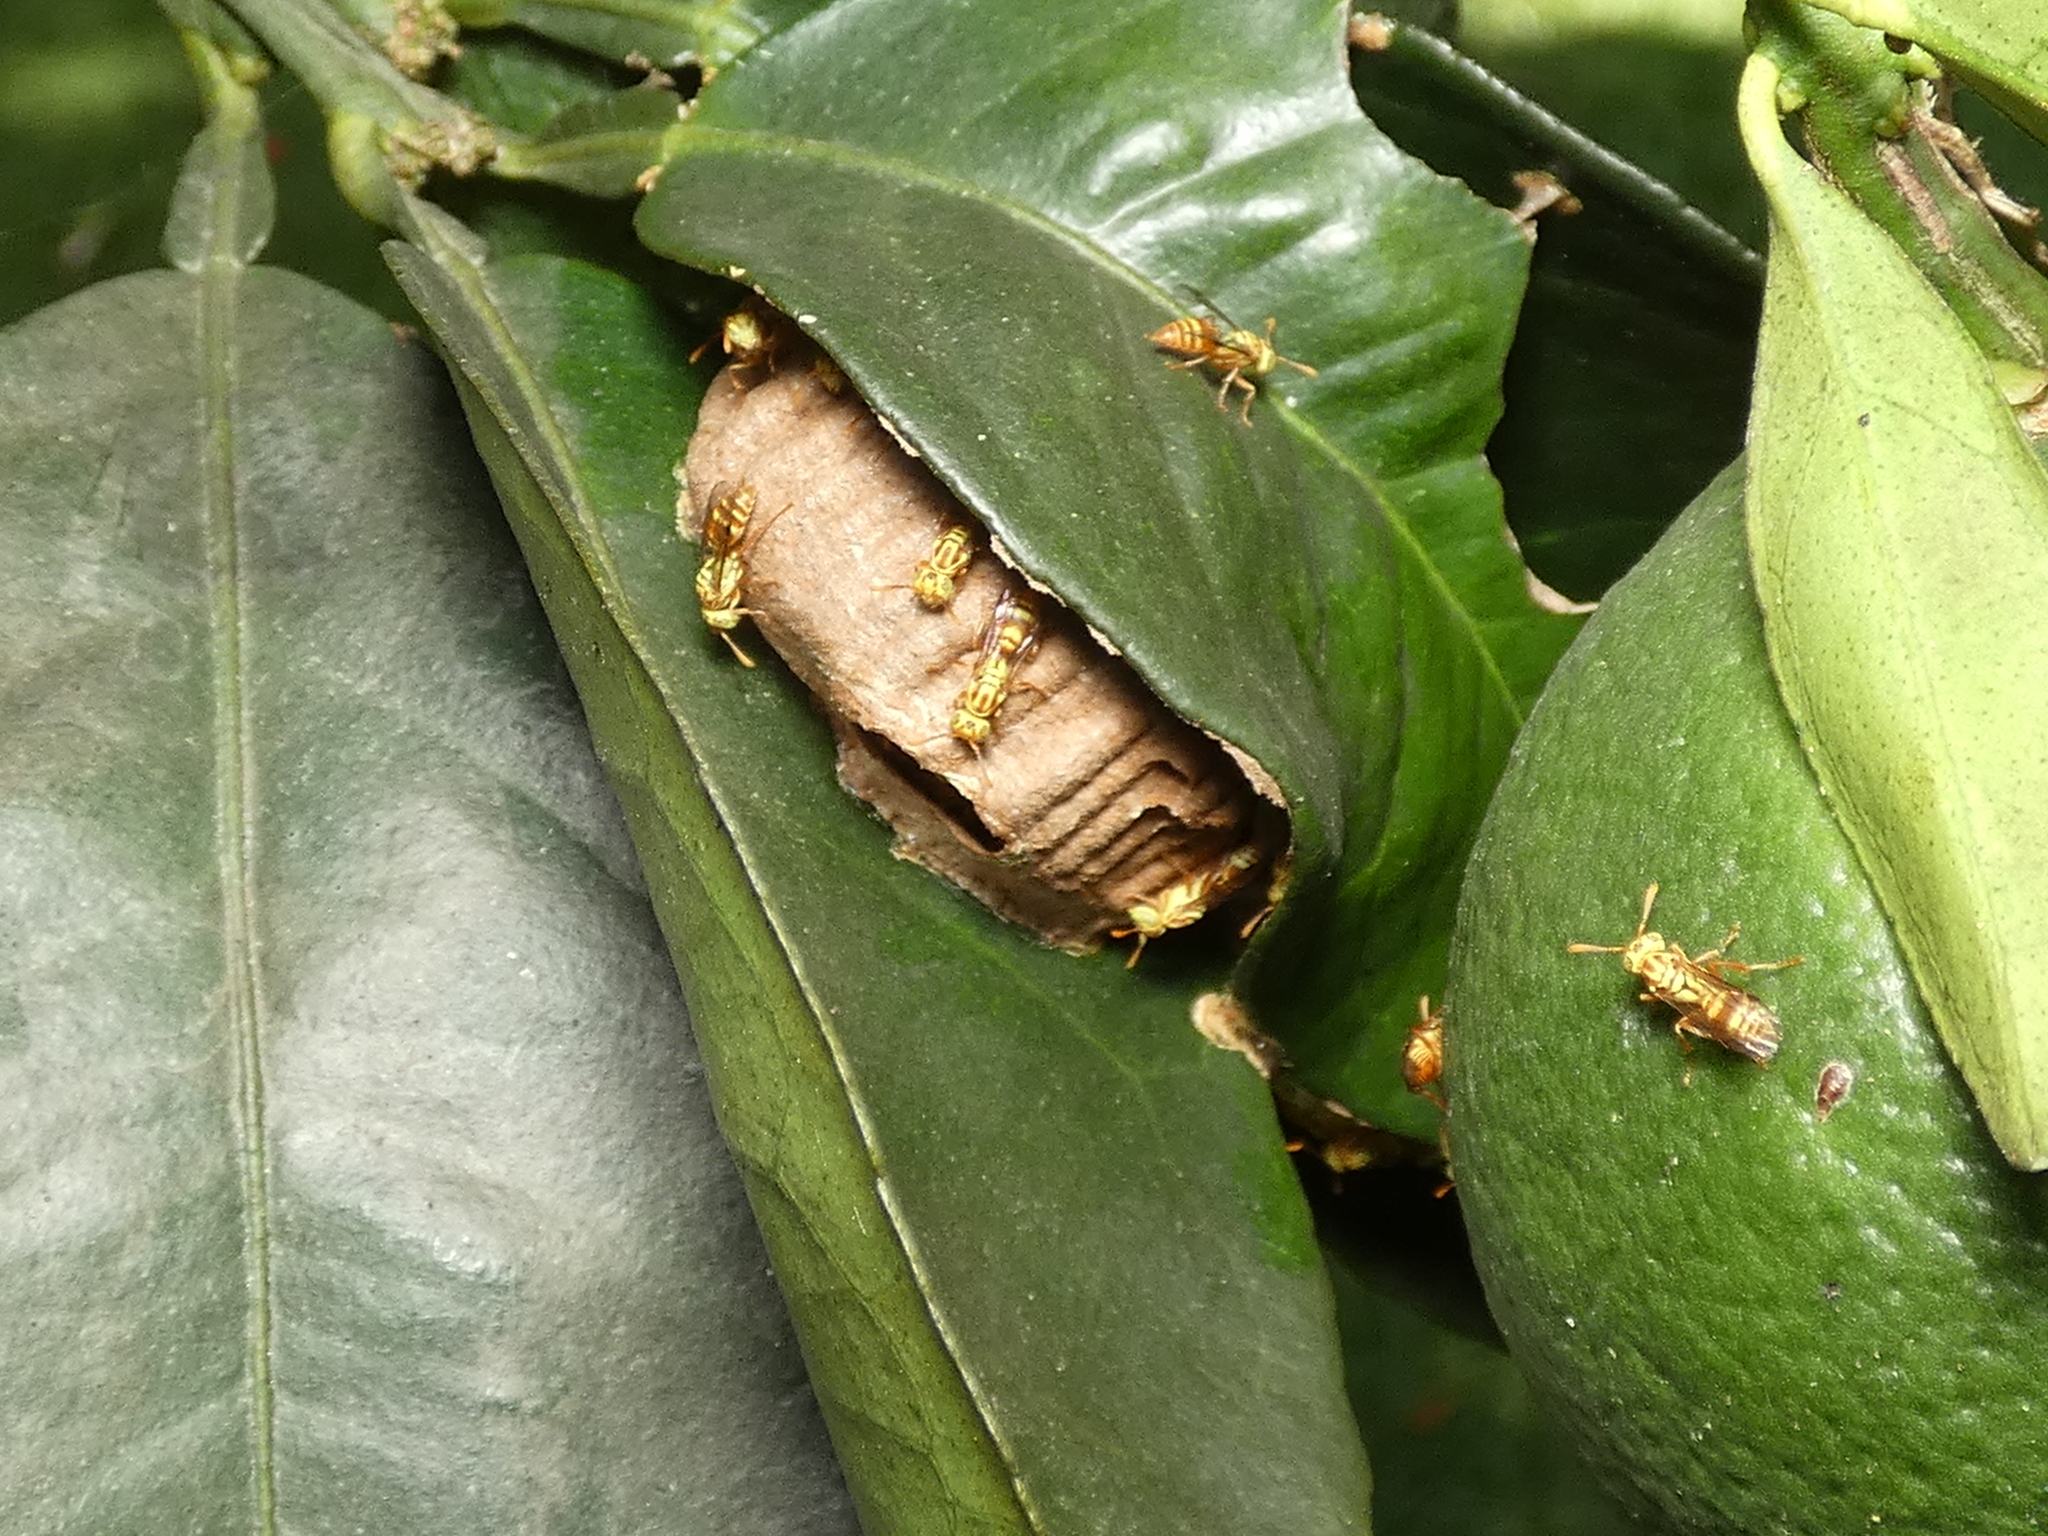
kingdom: Animalia
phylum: Arthropoda
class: Insecta
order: Hymenoptera
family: Vespidae
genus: Protopolybia
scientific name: Protopolybia potiguara
